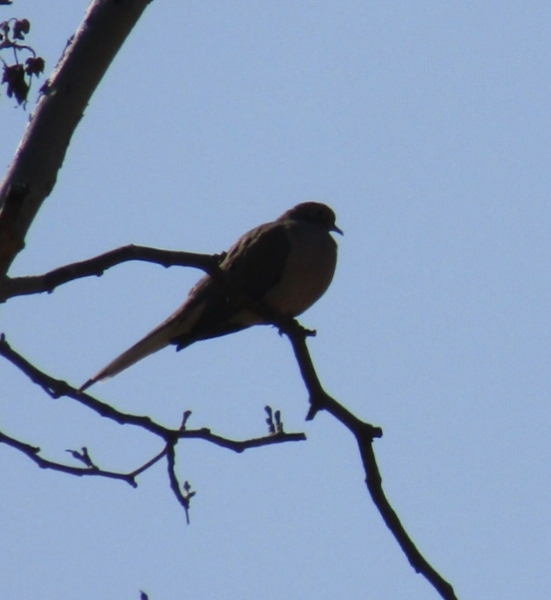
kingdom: Animalia
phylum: Chordata
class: Aves
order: Columbiformes
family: Columbidae
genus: Zenaida
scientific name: Zenaida macroura
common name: Mourning dove
